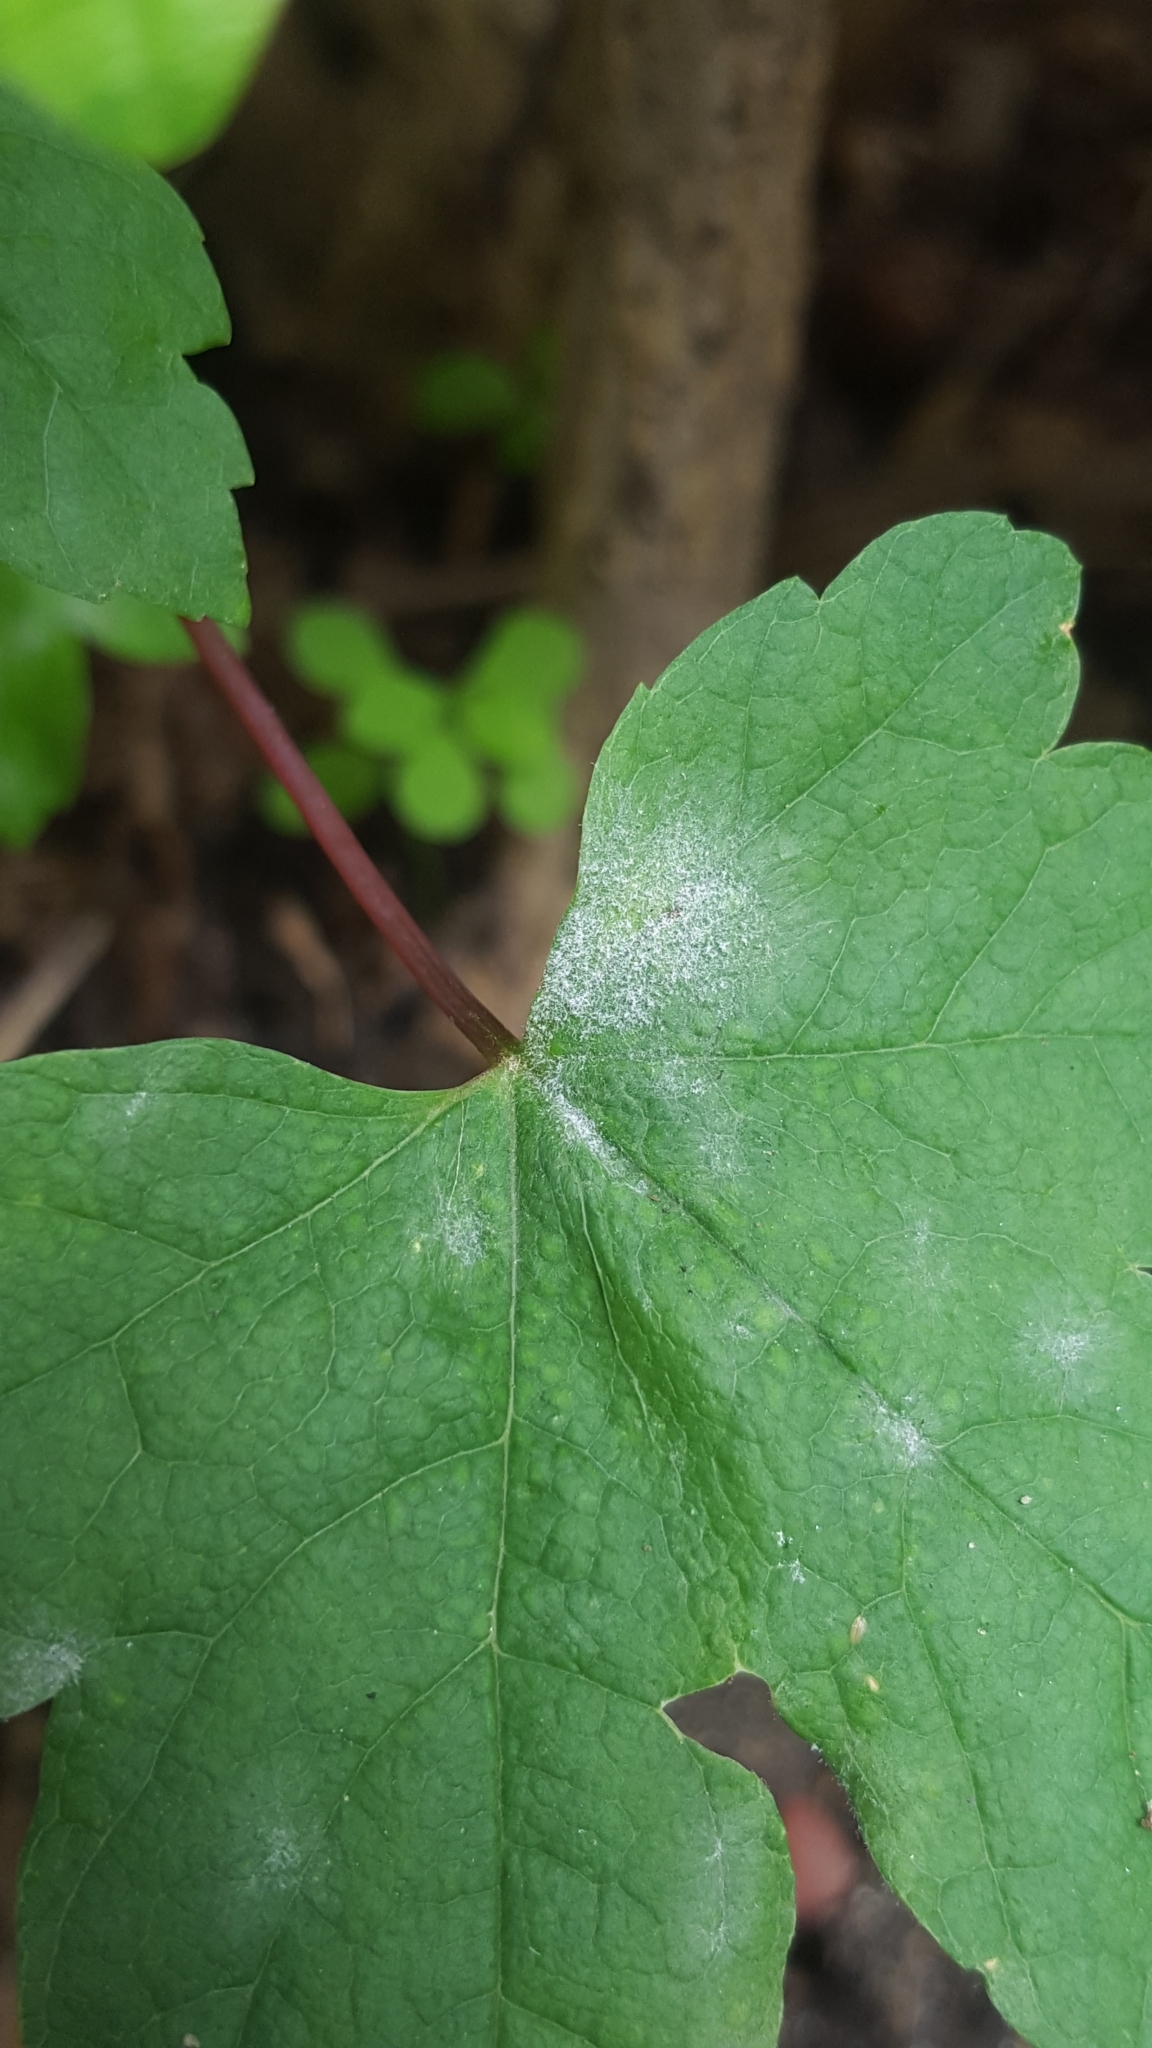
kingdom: Fungi
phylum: Ascomycota
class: Leotiomycetes
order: Helotiales
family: Erysiphaceae
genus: Sawadaea
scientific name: Sawadaea bicornis
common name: Maple mildew
